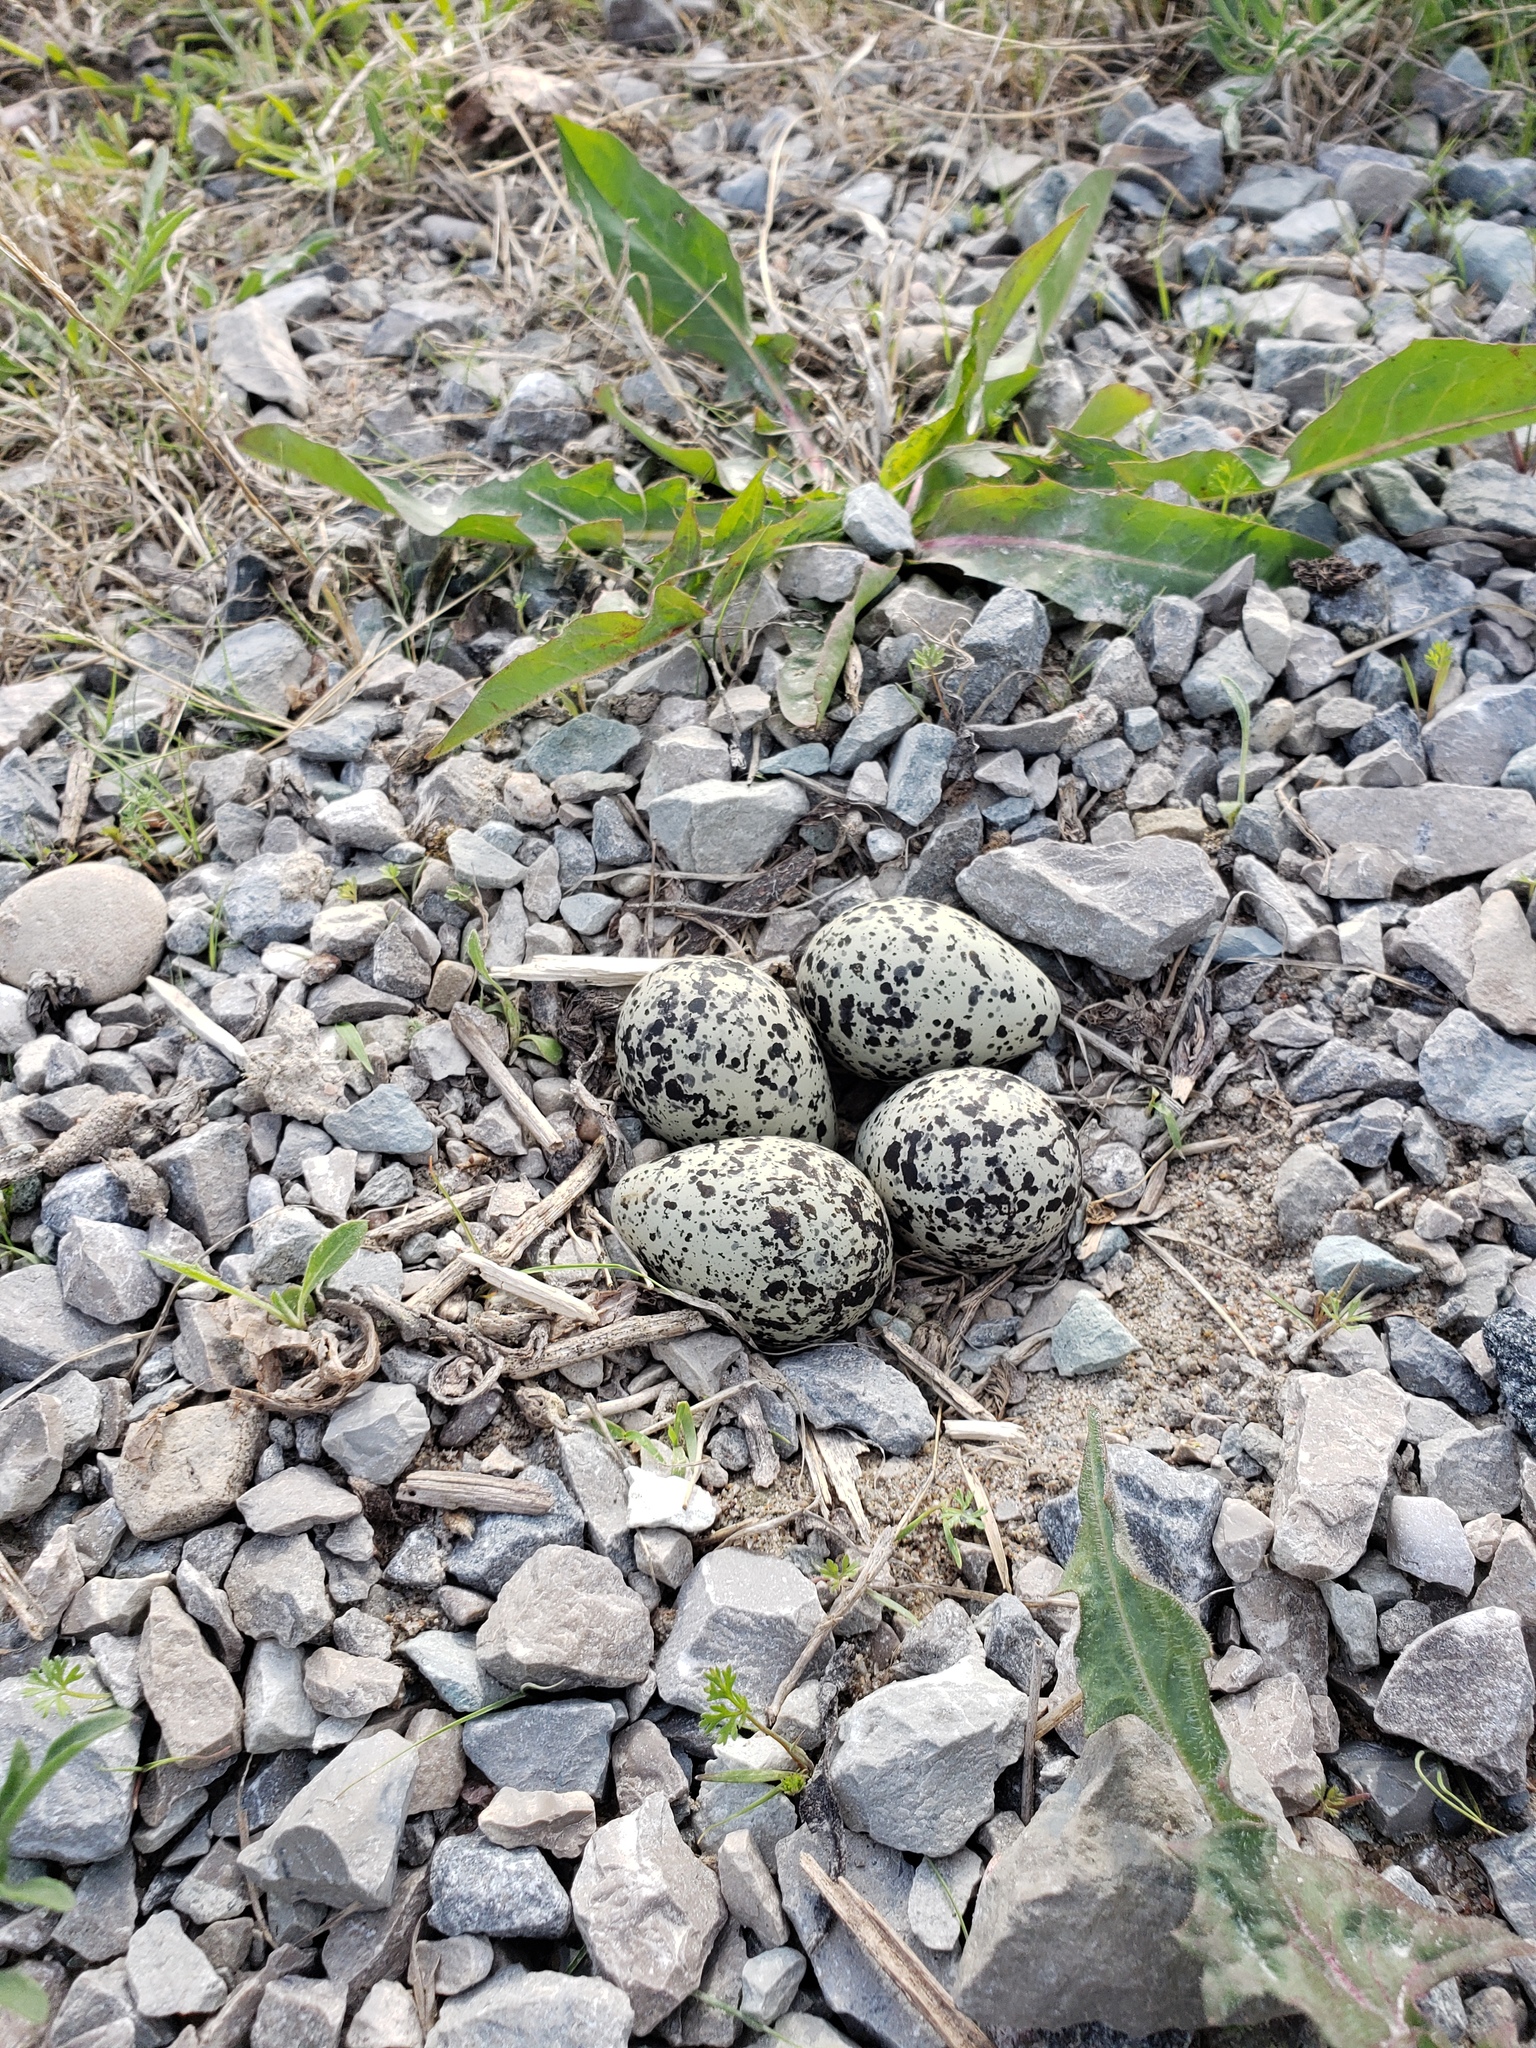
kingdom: Animalia
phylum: Chordata
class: Aves
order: Charadriiformes
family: Charadriidae
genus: Charadrius
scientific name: Charadrius vociferus
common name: Killdeer
